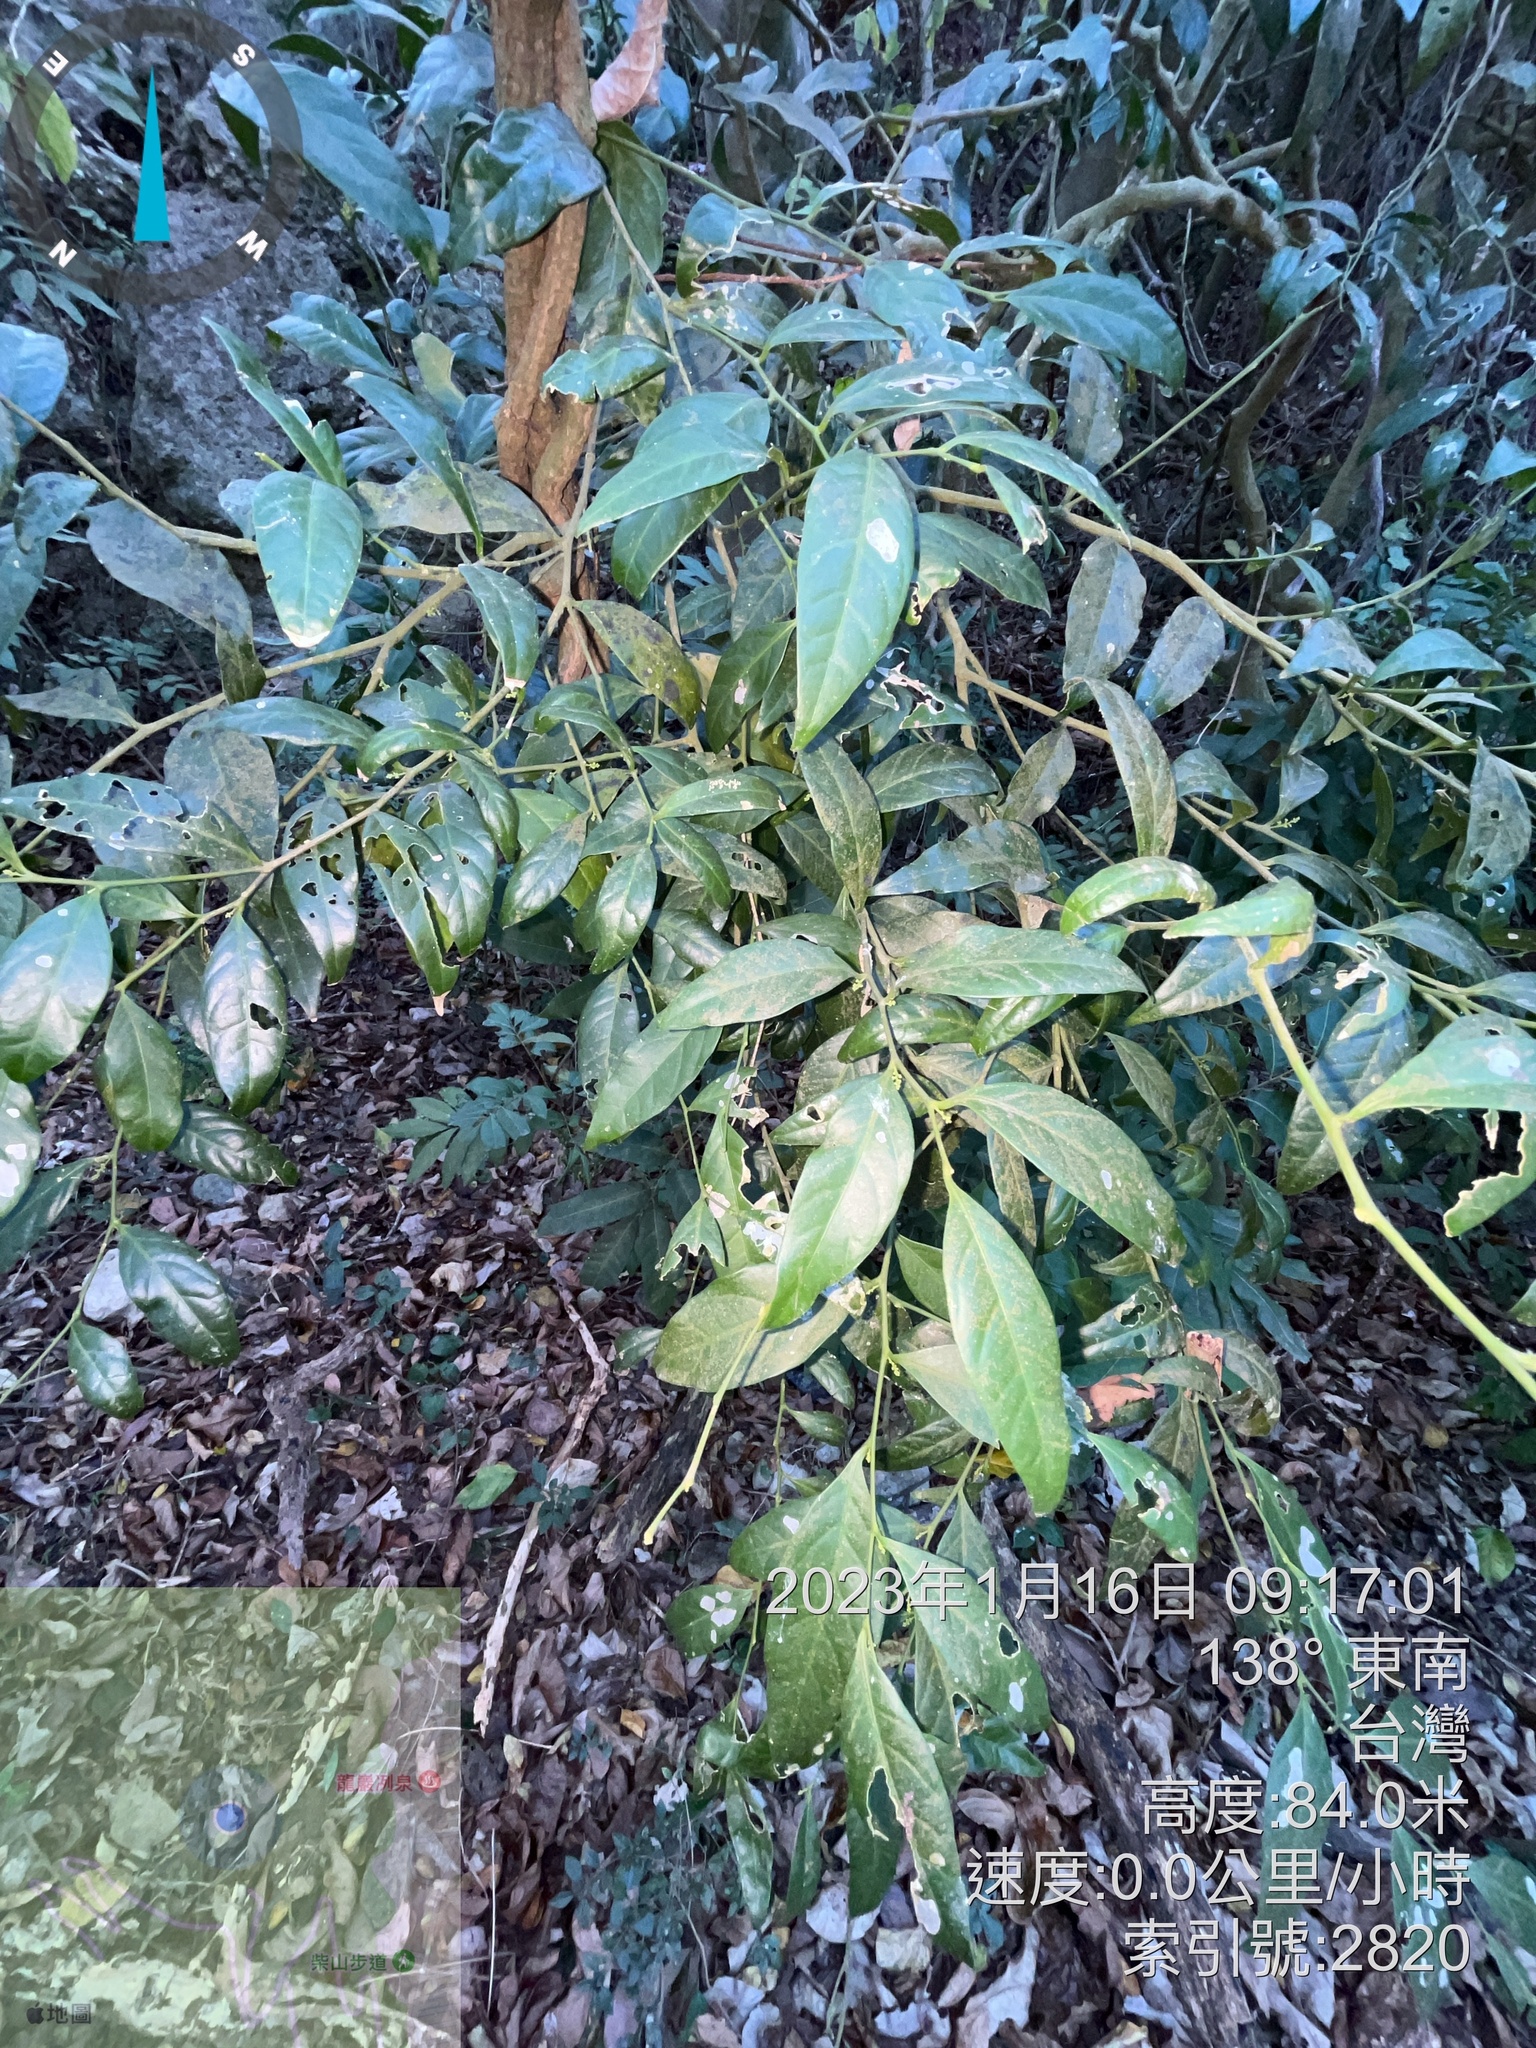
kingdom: Plantae
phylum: Tracheophyta
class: Magnoliopsida
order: Santalales
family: Opiliaceae
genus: Champereia
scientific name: Champereia manillana
